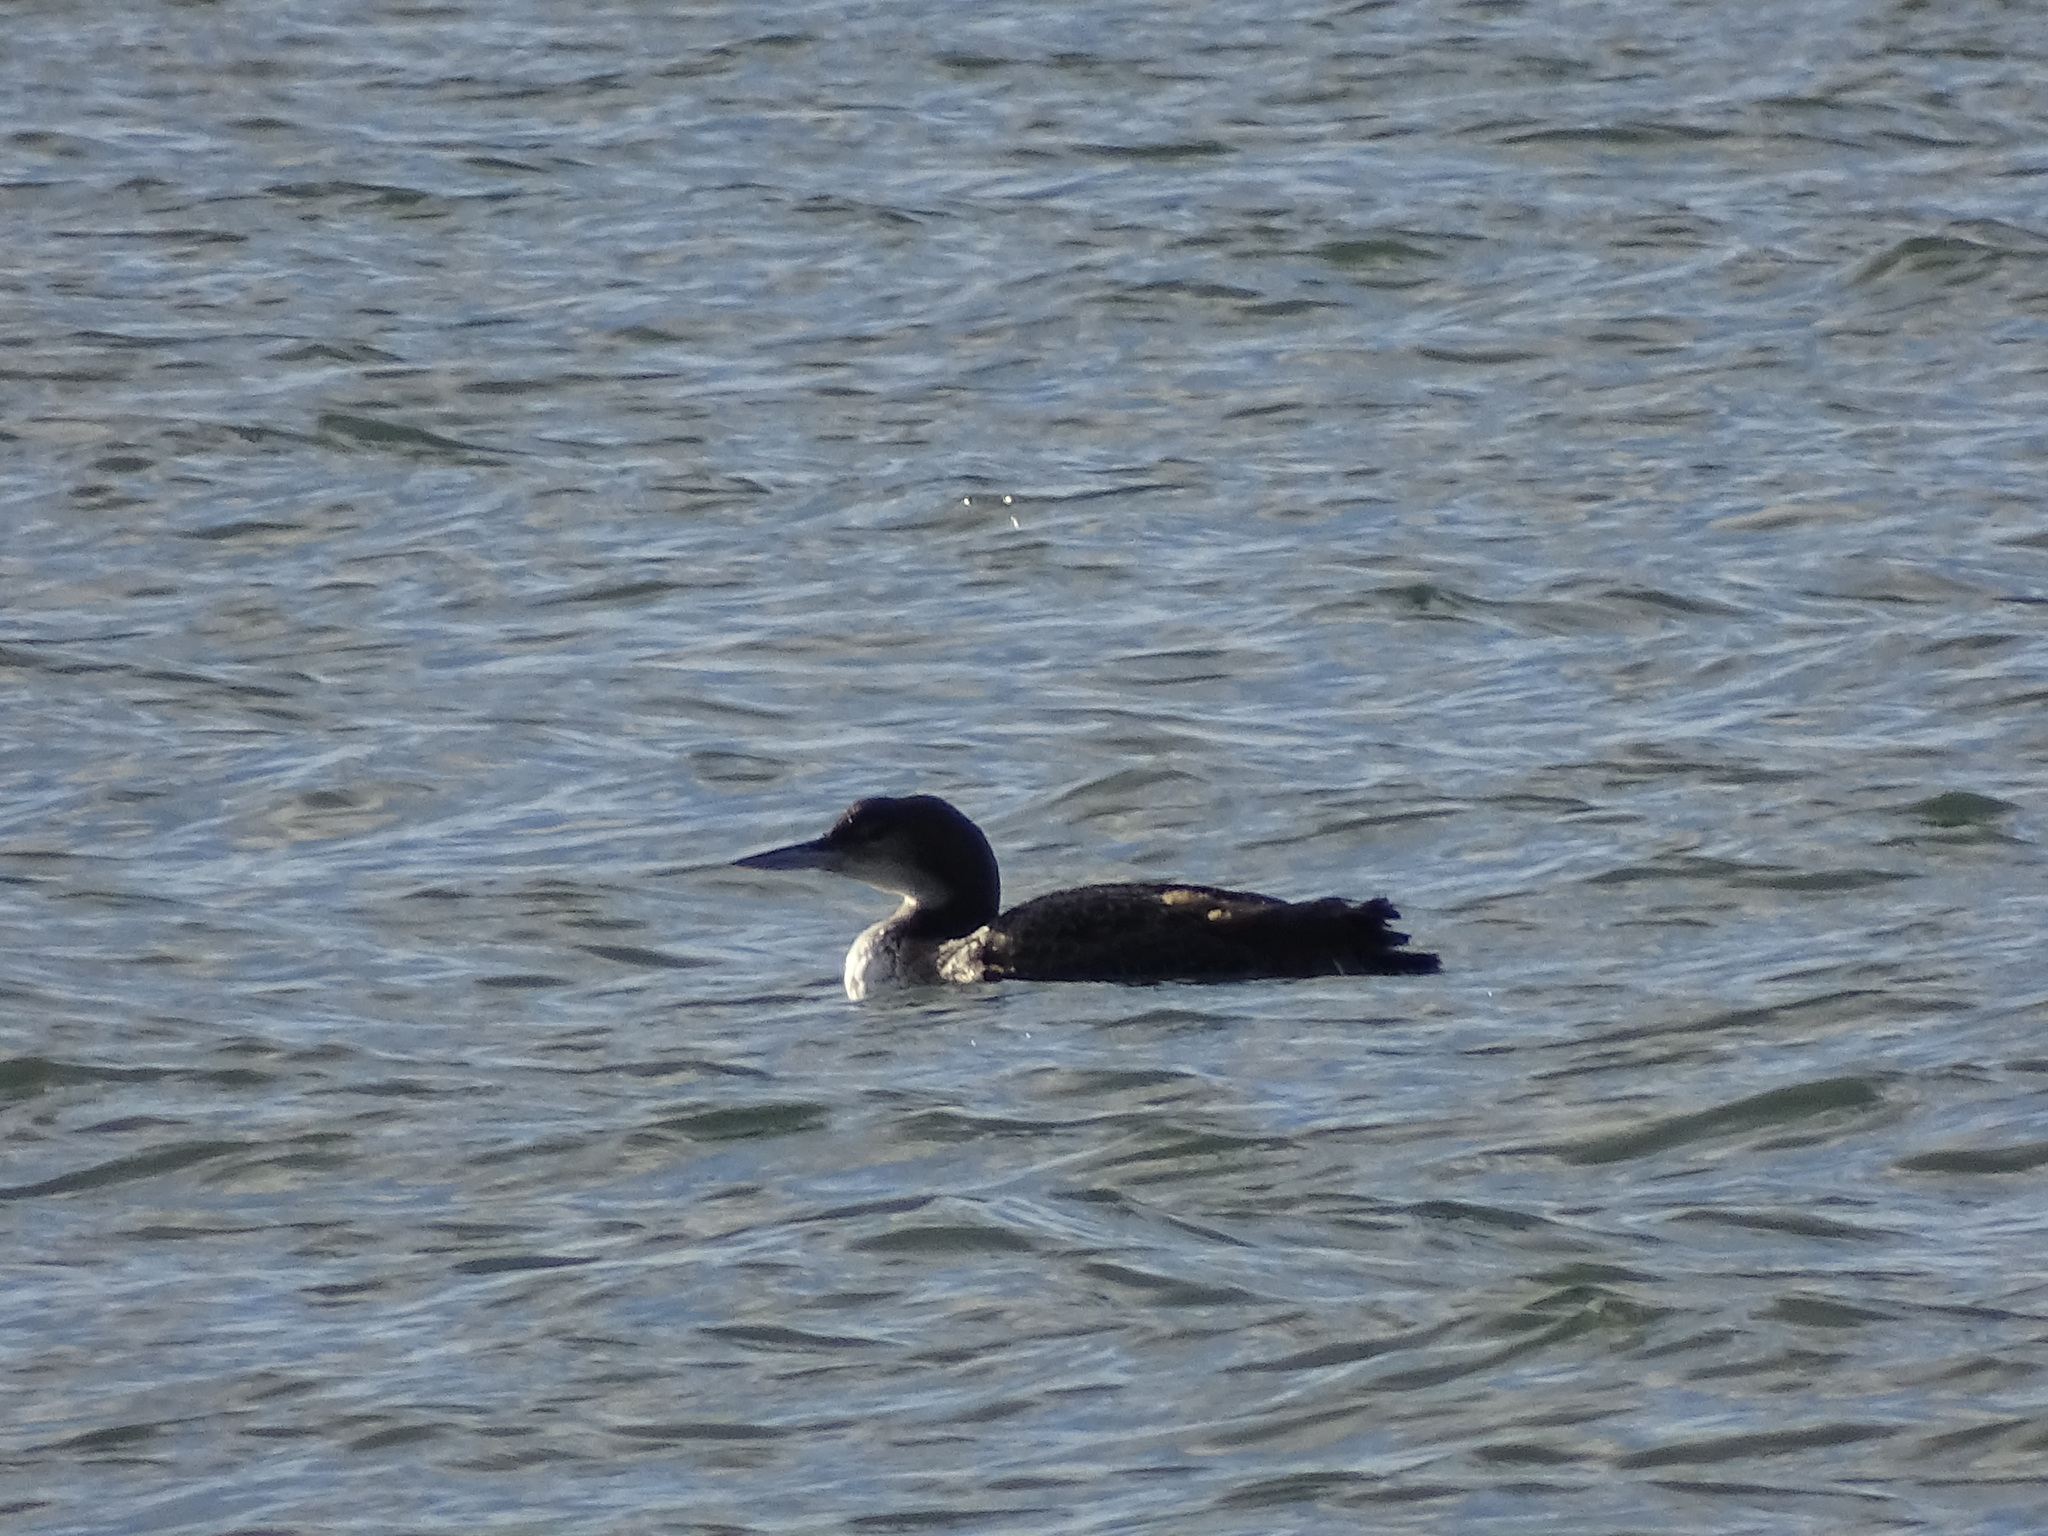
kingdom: Animalia
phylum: Chordata
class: Aves
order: Gaviiformes
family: Gaviidae
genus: Gavia
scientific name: Gavia immer
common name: Common loon
